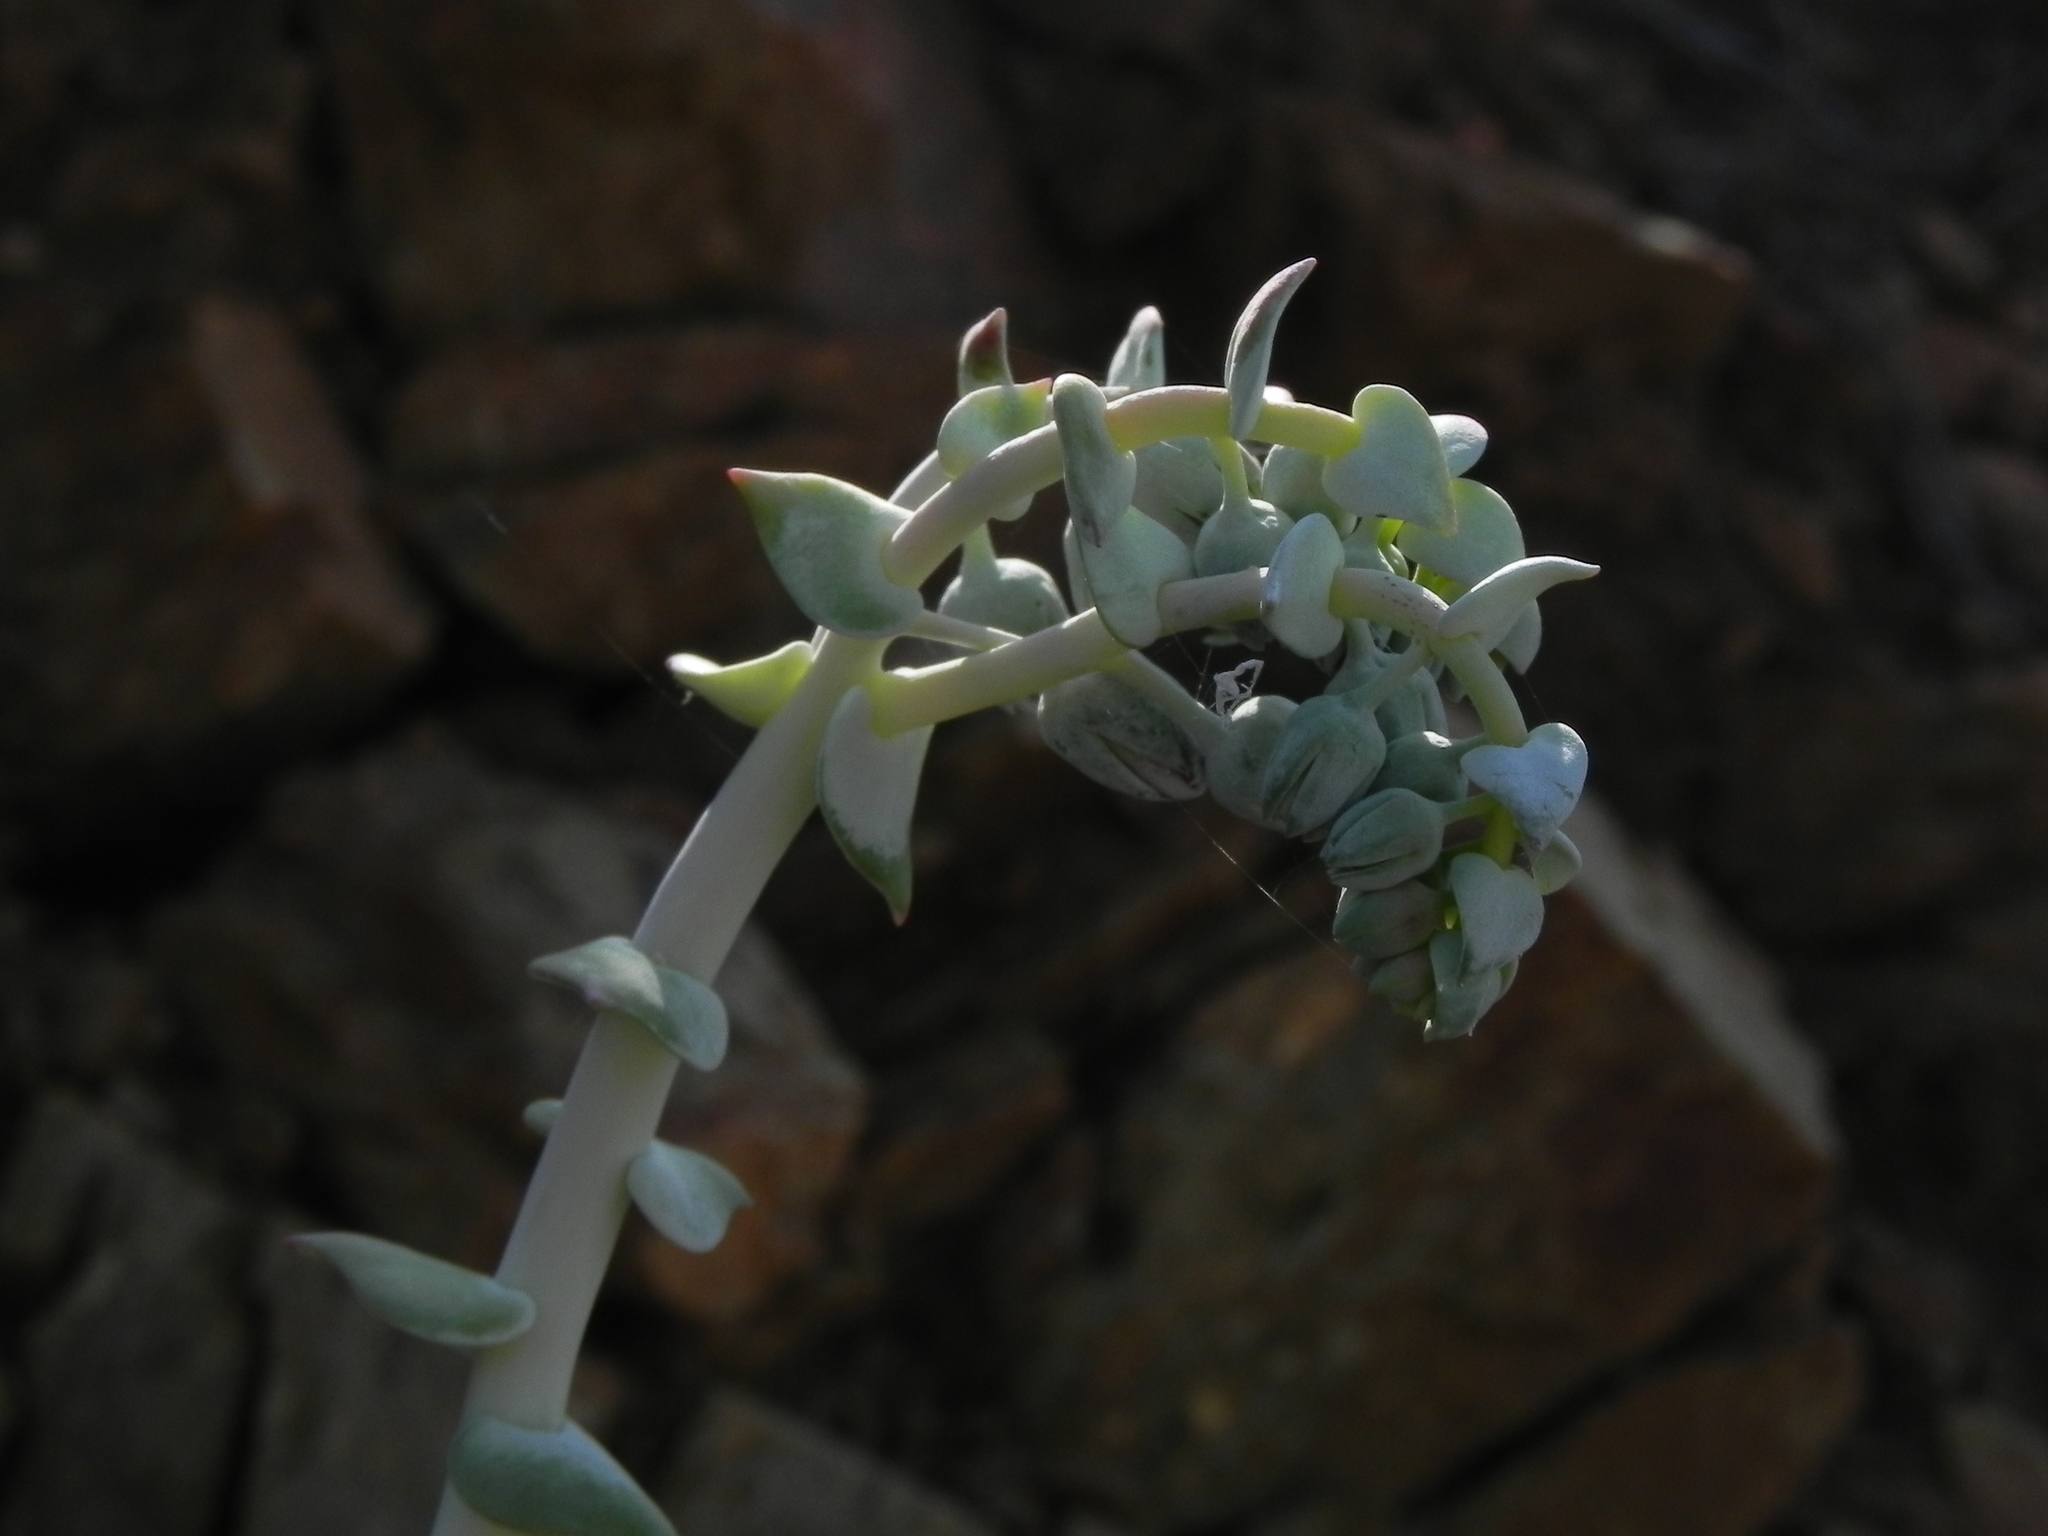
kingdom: Plantae
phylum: Tracheophyta
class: Magnoliopsida
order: Saxifragales
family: Crassulaceae
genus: Dudleya
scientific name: Dudleya pulverulenta
